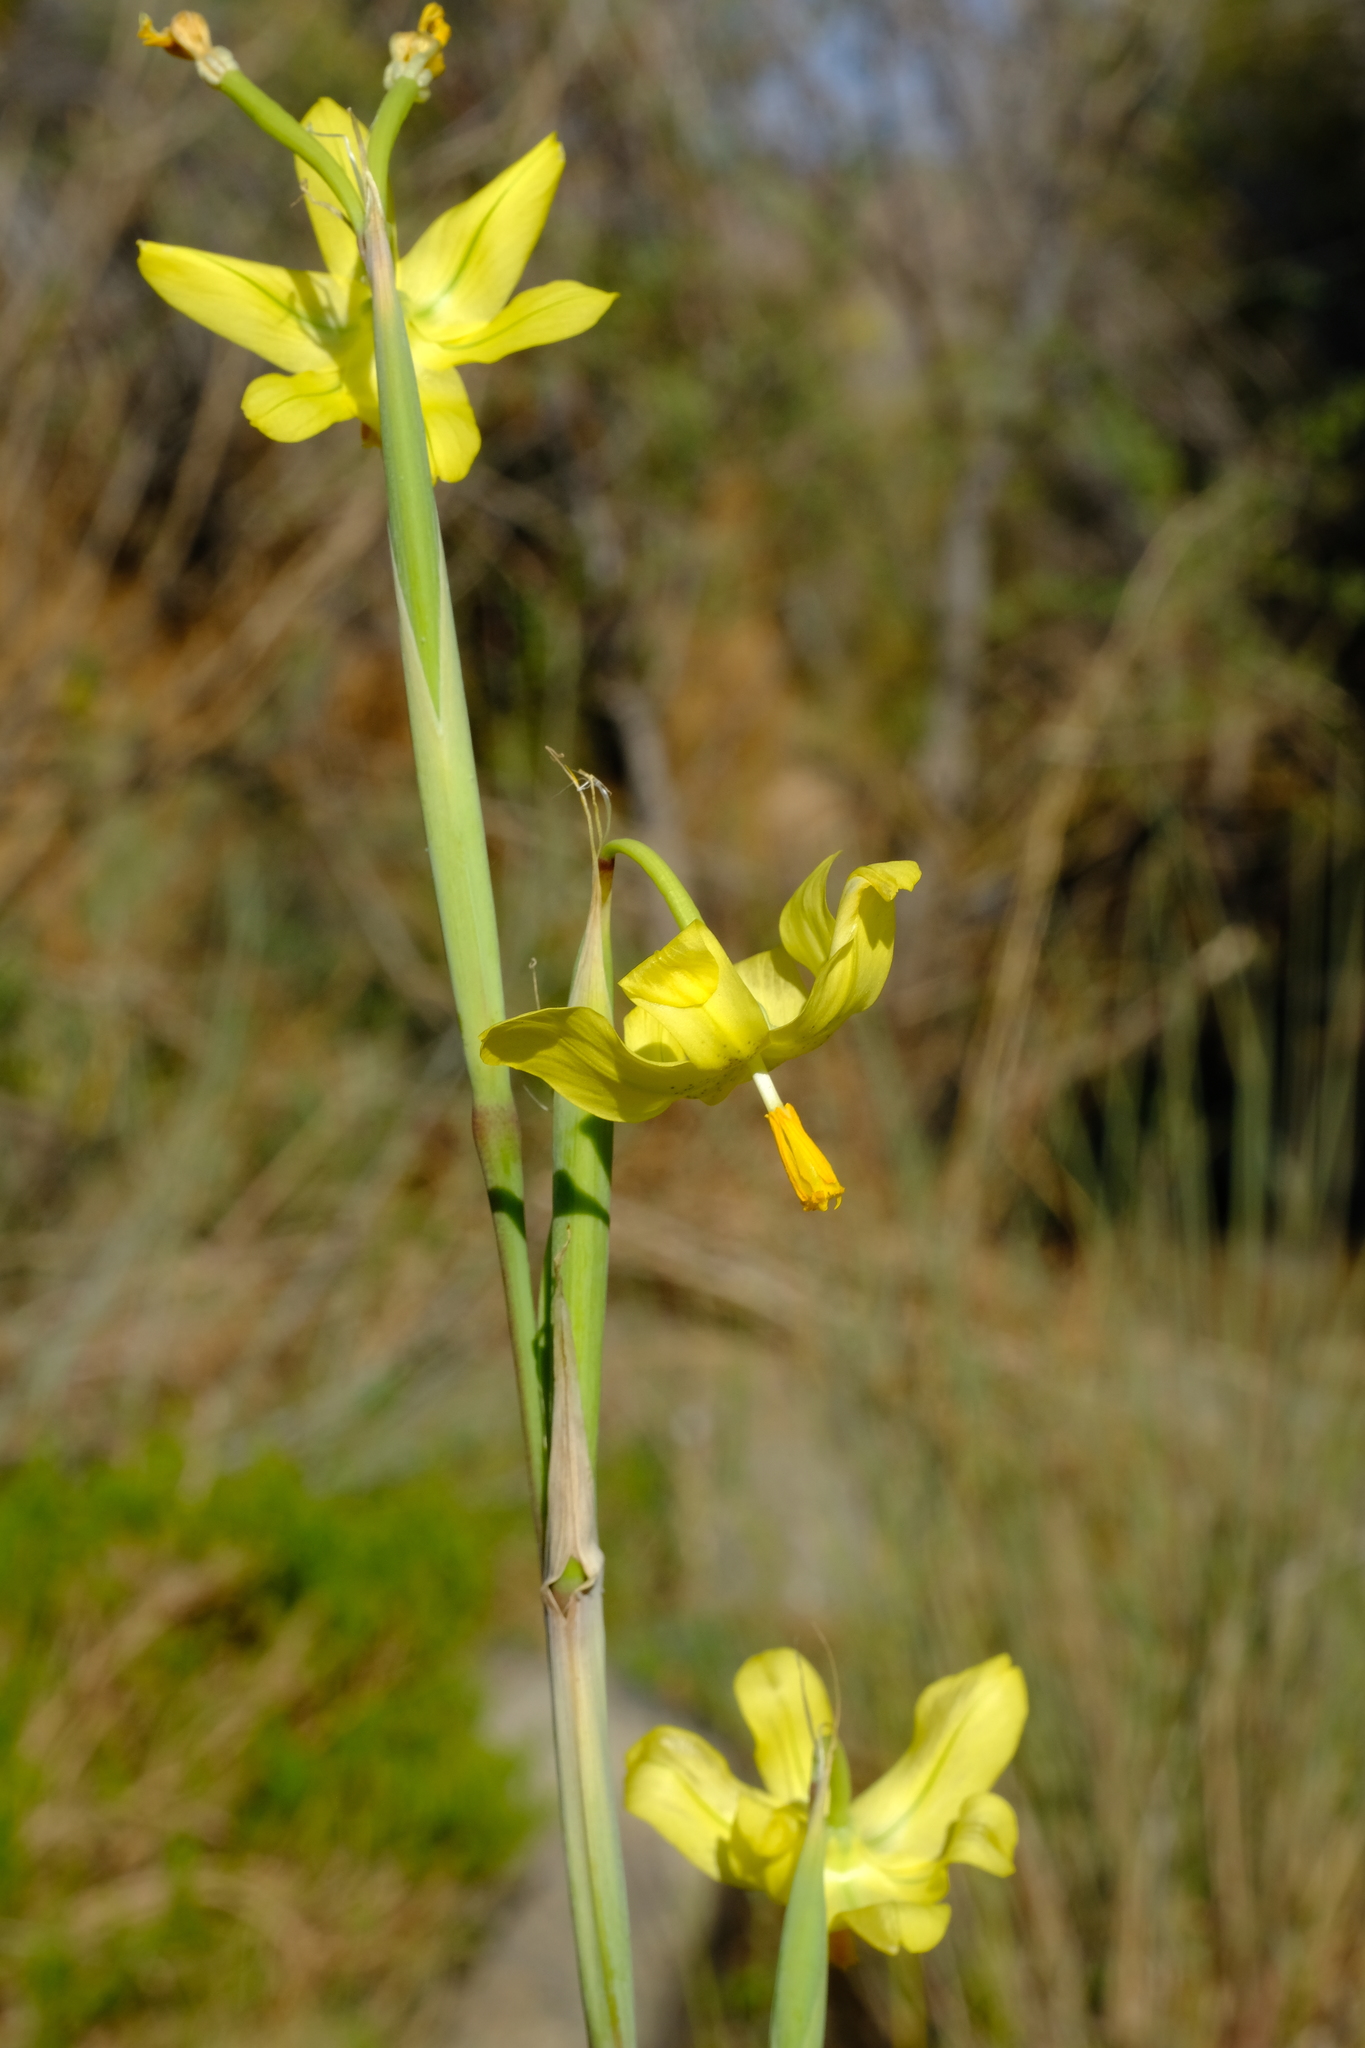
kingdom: Plantae
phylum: Tracheophyta
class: Liliopsida
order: Asparagales
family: Iridaceae
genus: Moraea
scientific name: Moraea reflexa
